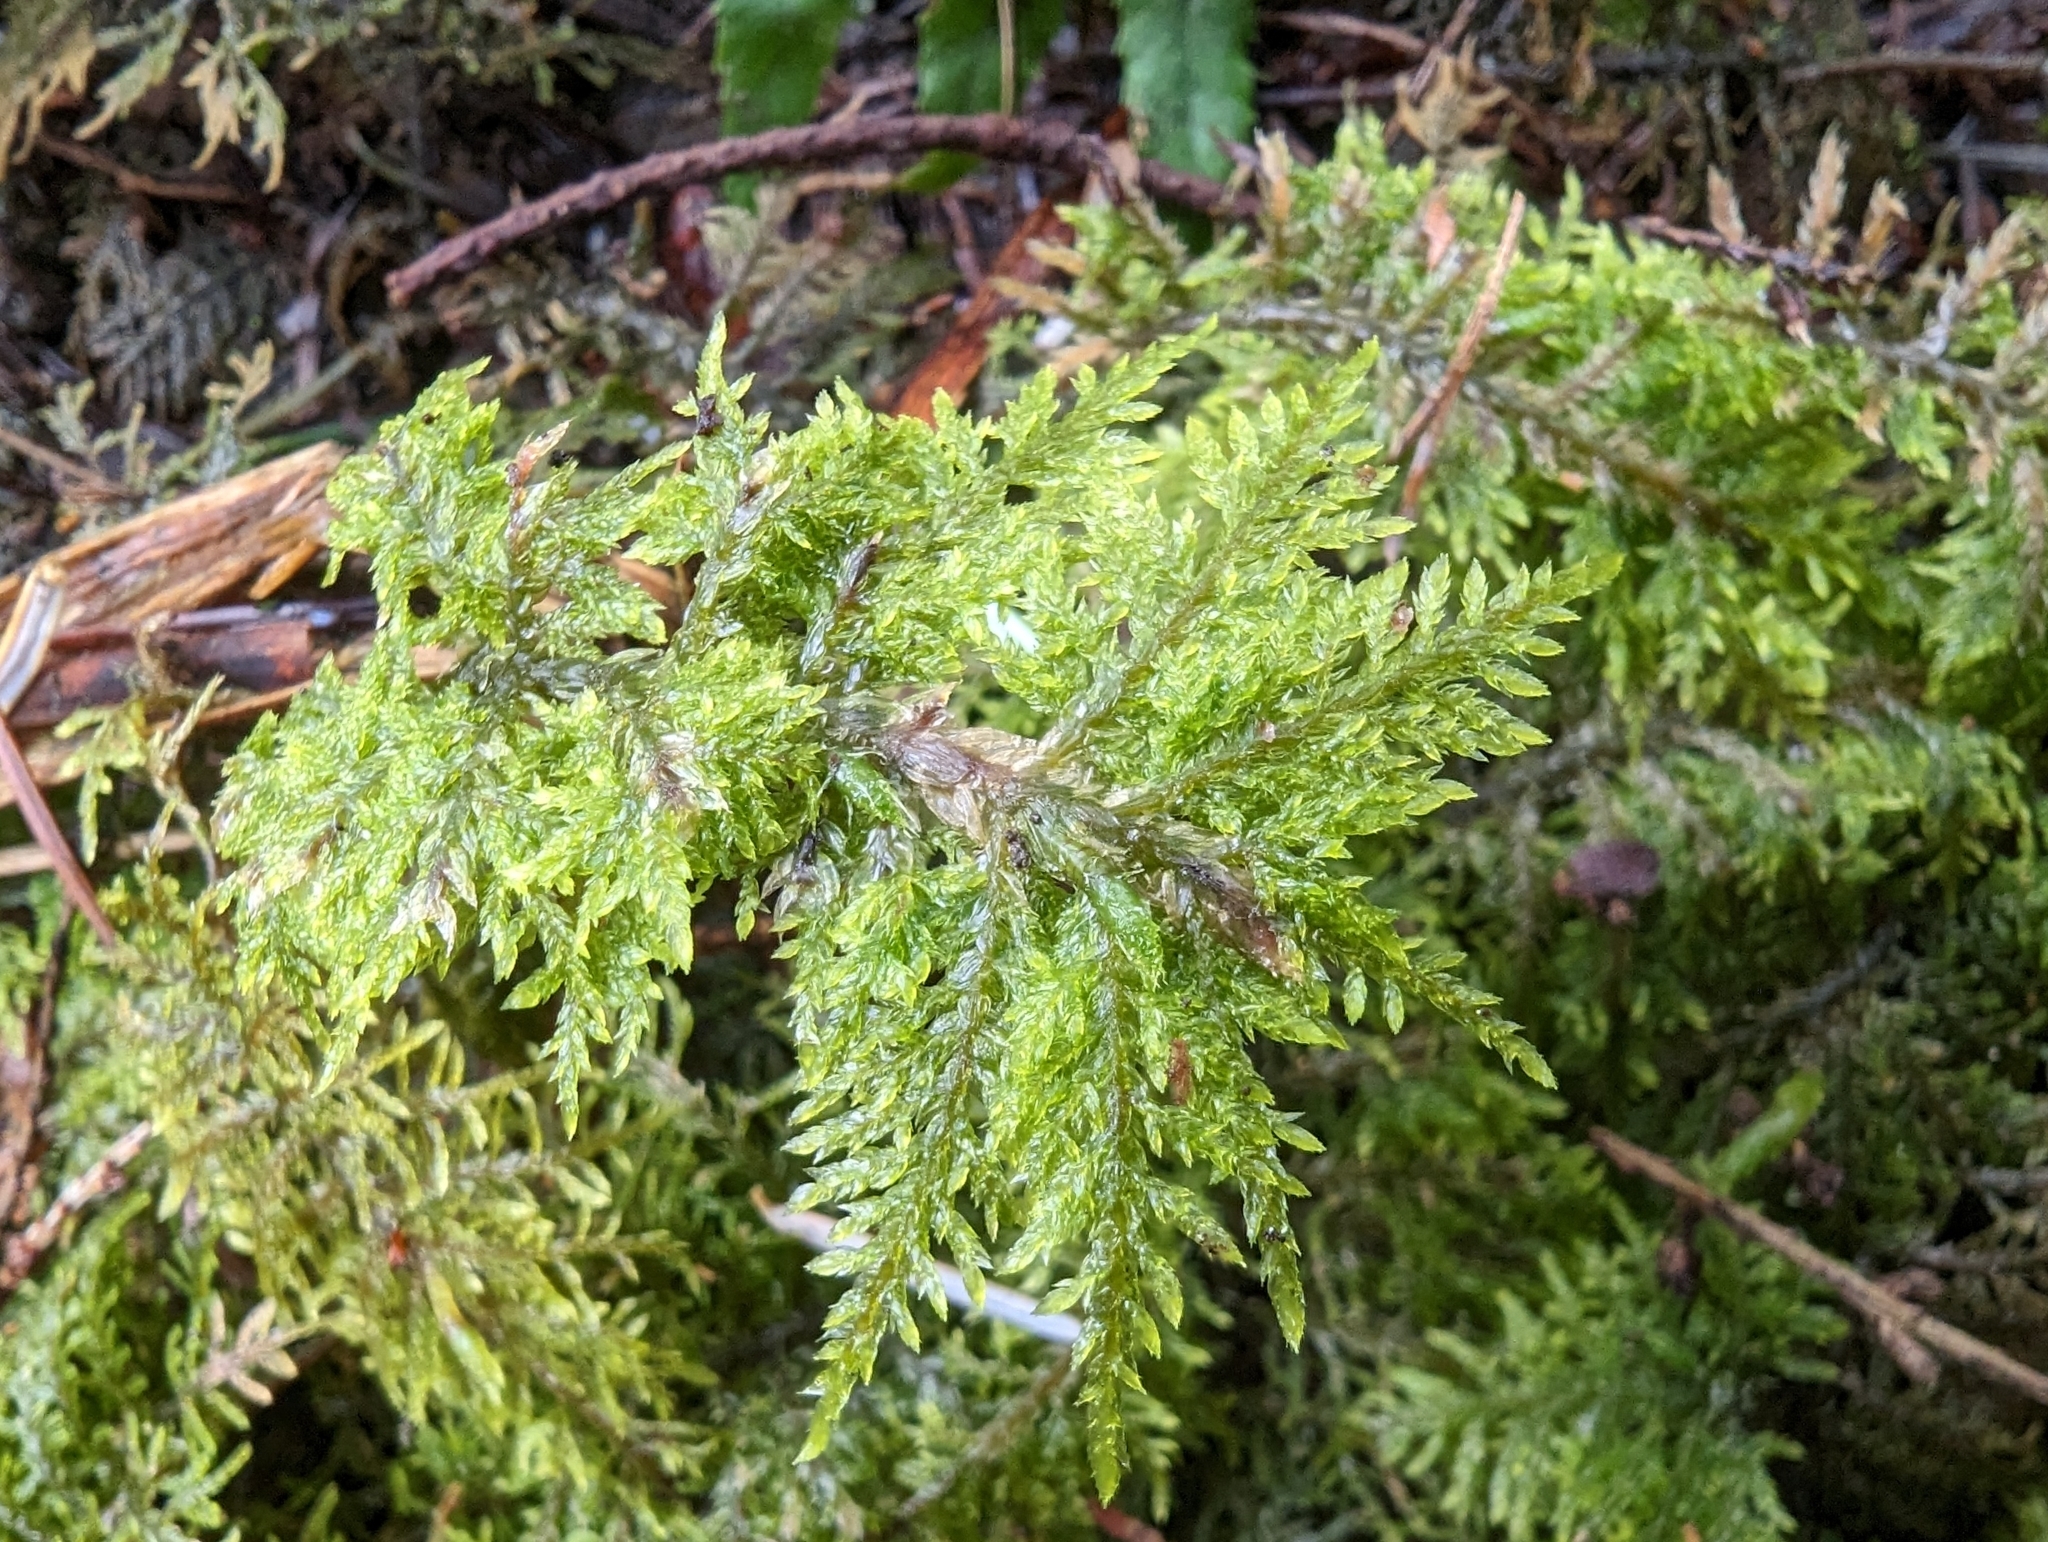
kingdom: Plantae
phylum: Bryophyta
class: Bryopsida
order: Hypnales
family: Hylocomiaceae
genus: Hylocomium
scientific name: Hylocomium splendens
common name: Stairstep moss
